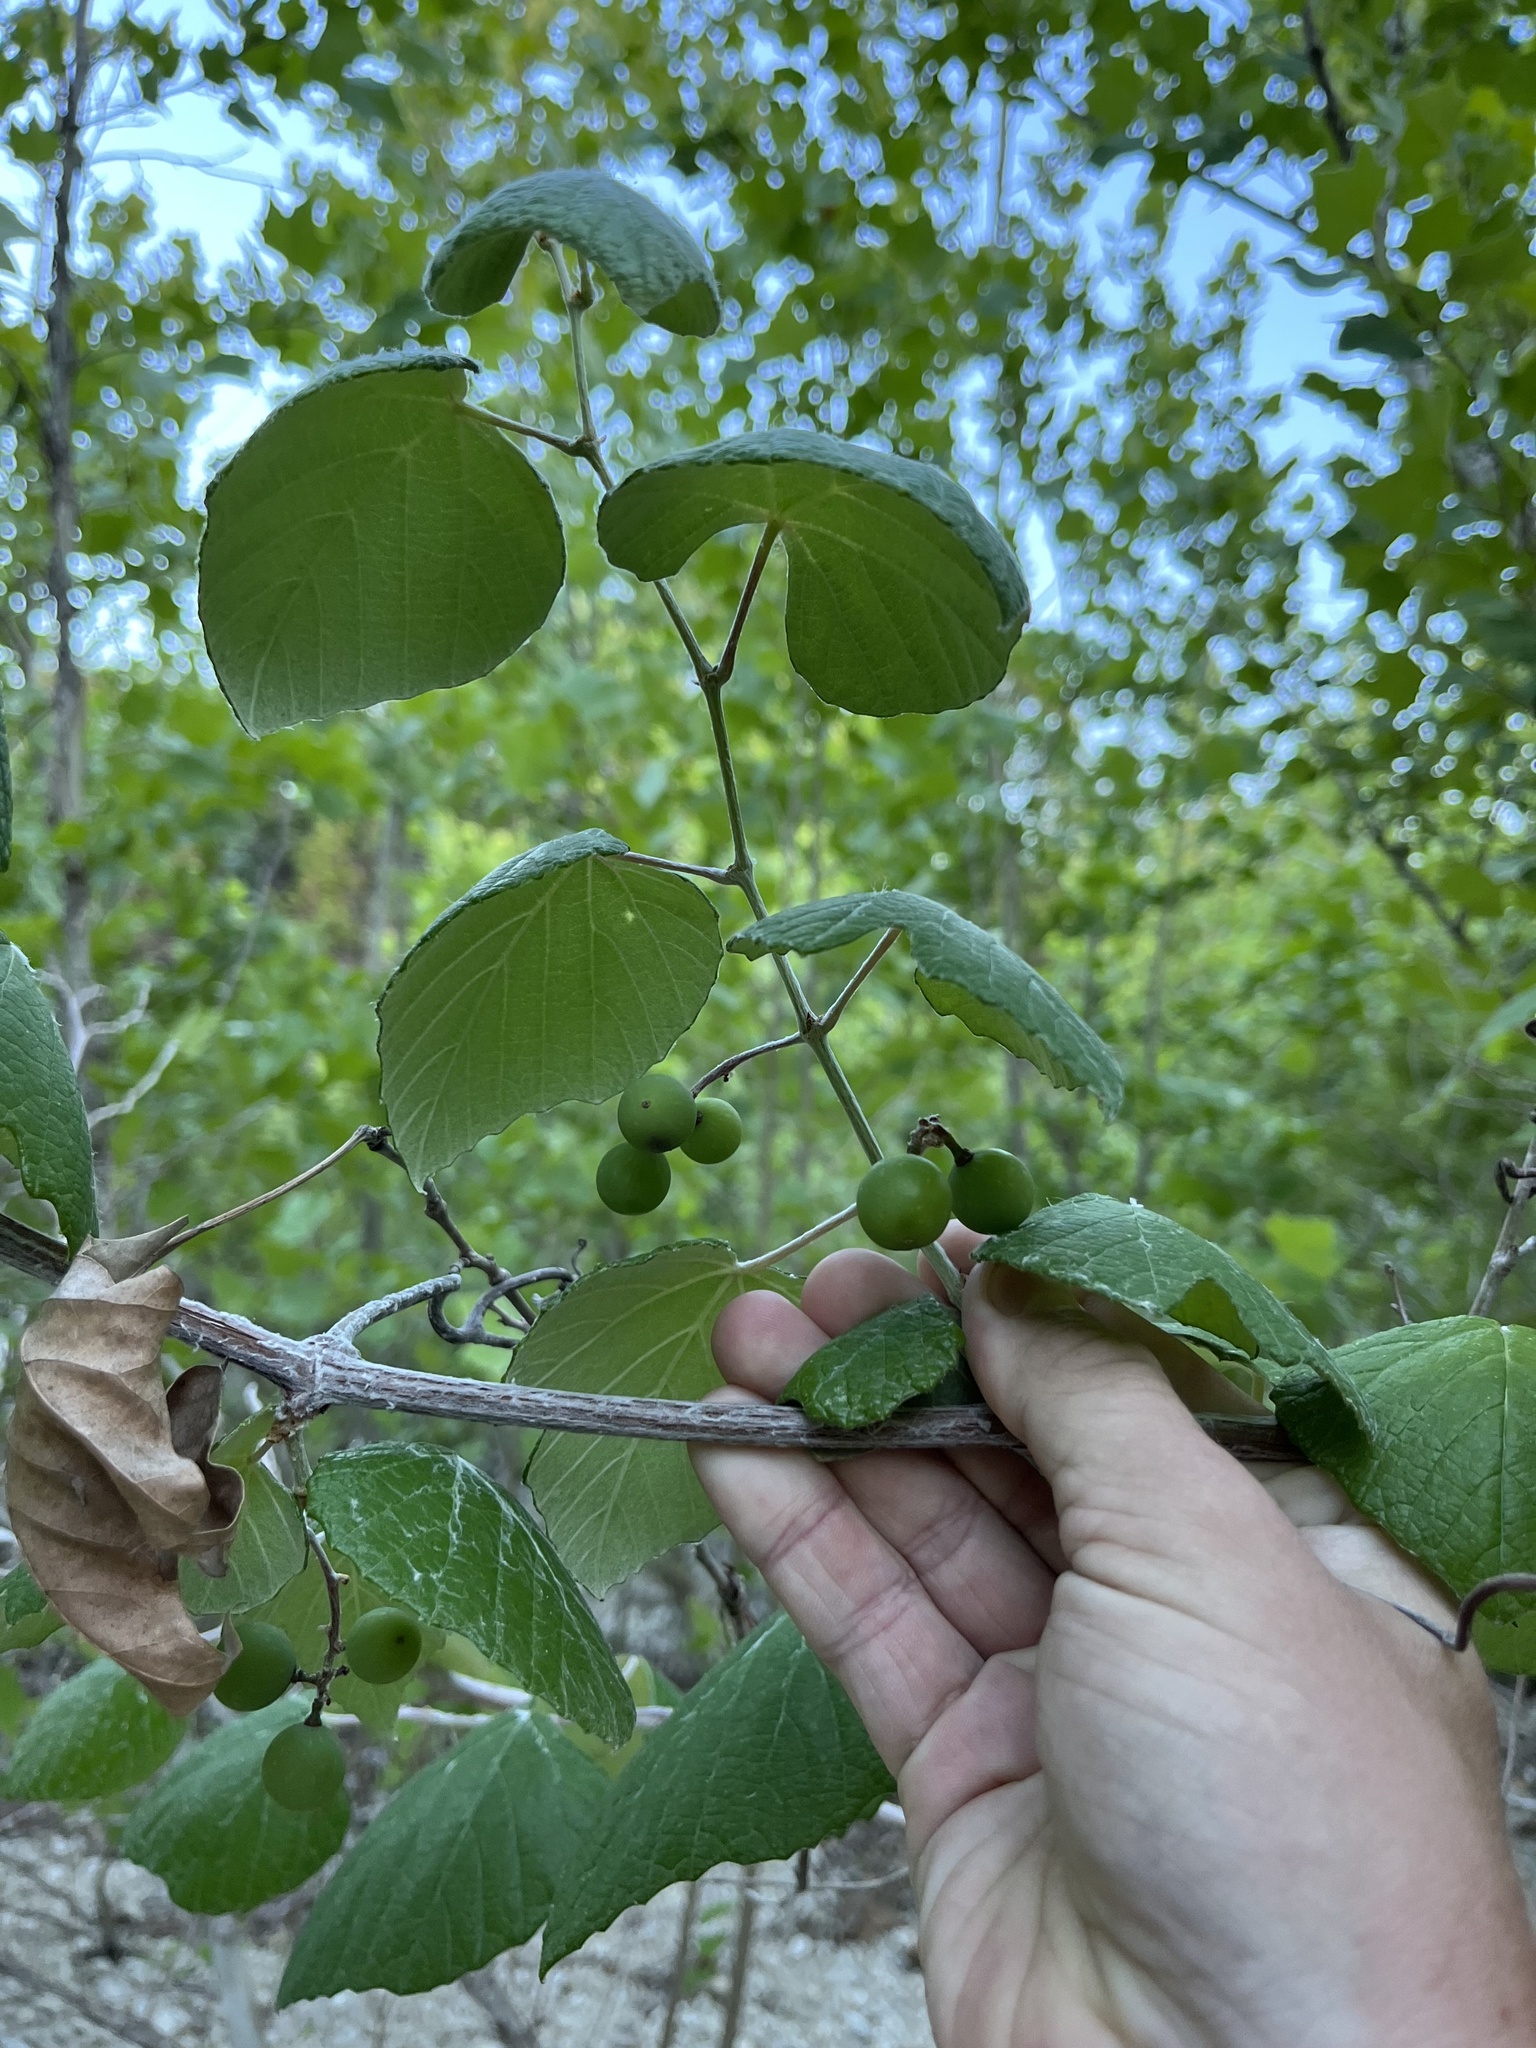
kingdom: Plantae
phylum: Tracheophyta
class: Magnoliopsida
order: Vitales
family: Vitaceae
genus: Vitis
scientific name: Vitis mustangensis
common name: Mustang grape
